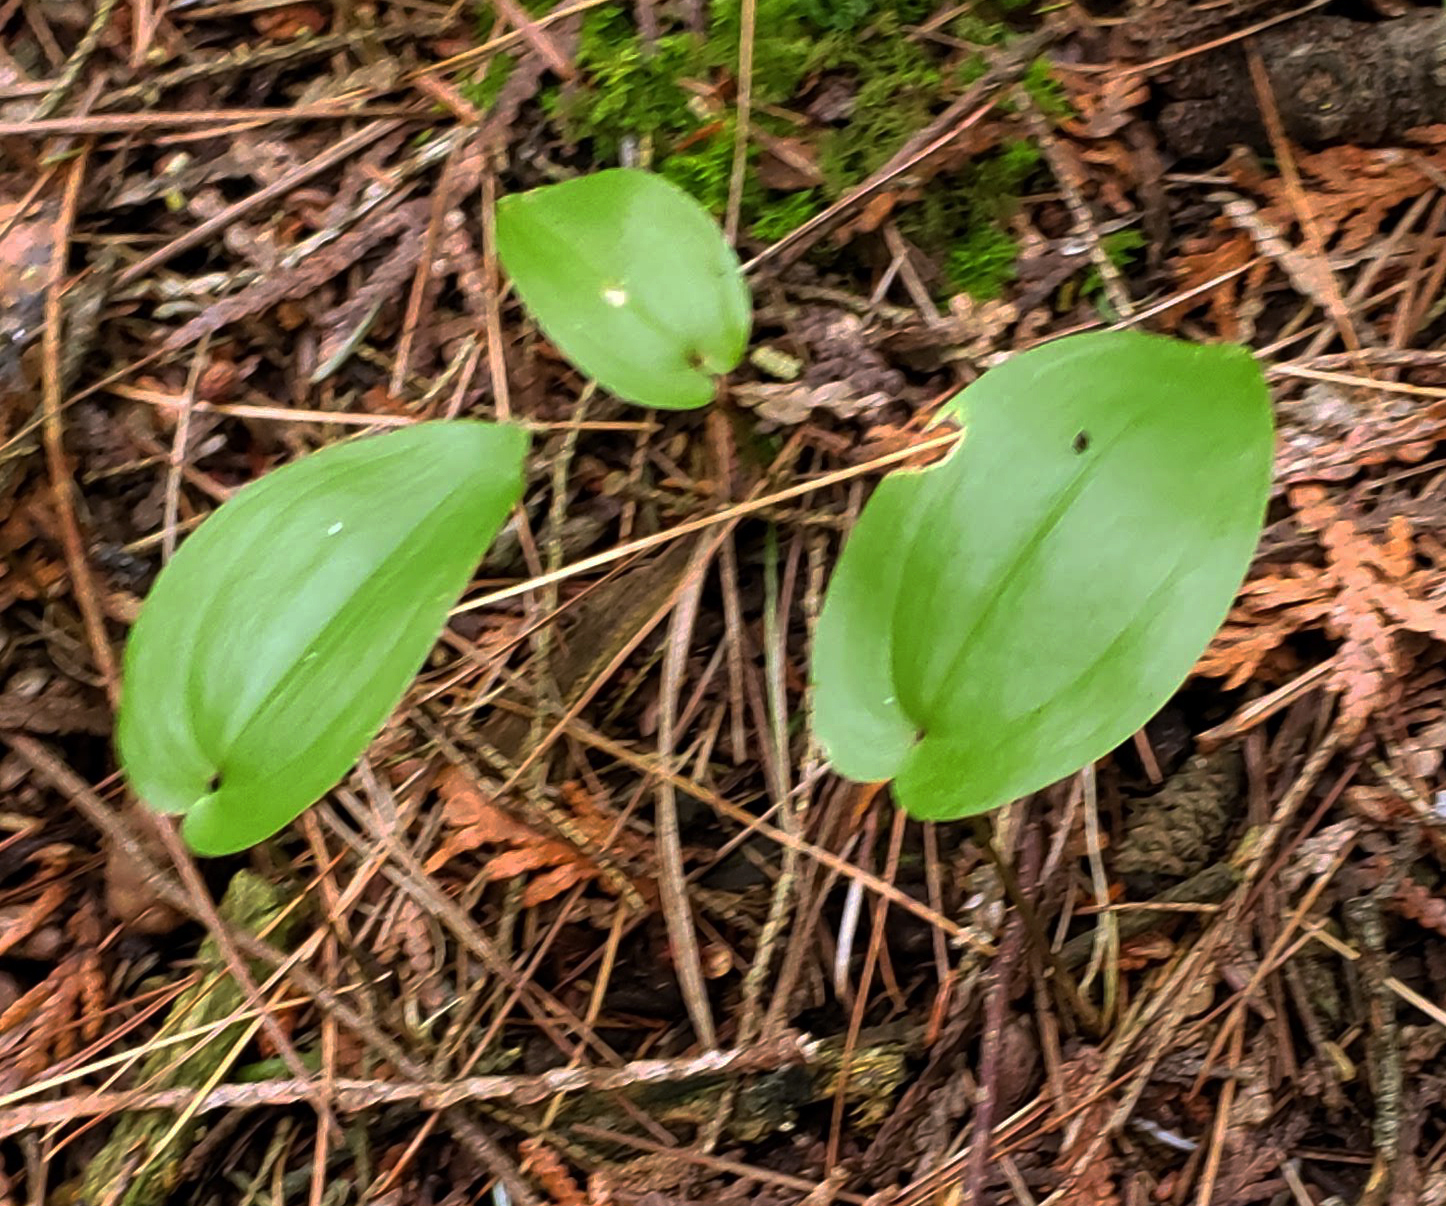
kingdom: Plantae
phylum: Tracheophyta
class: Liliopsida
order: Asparagales
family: Asparagaceae
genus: Maianthemum
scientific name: Maianthemum canadense
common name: False lily-of-the-valley
